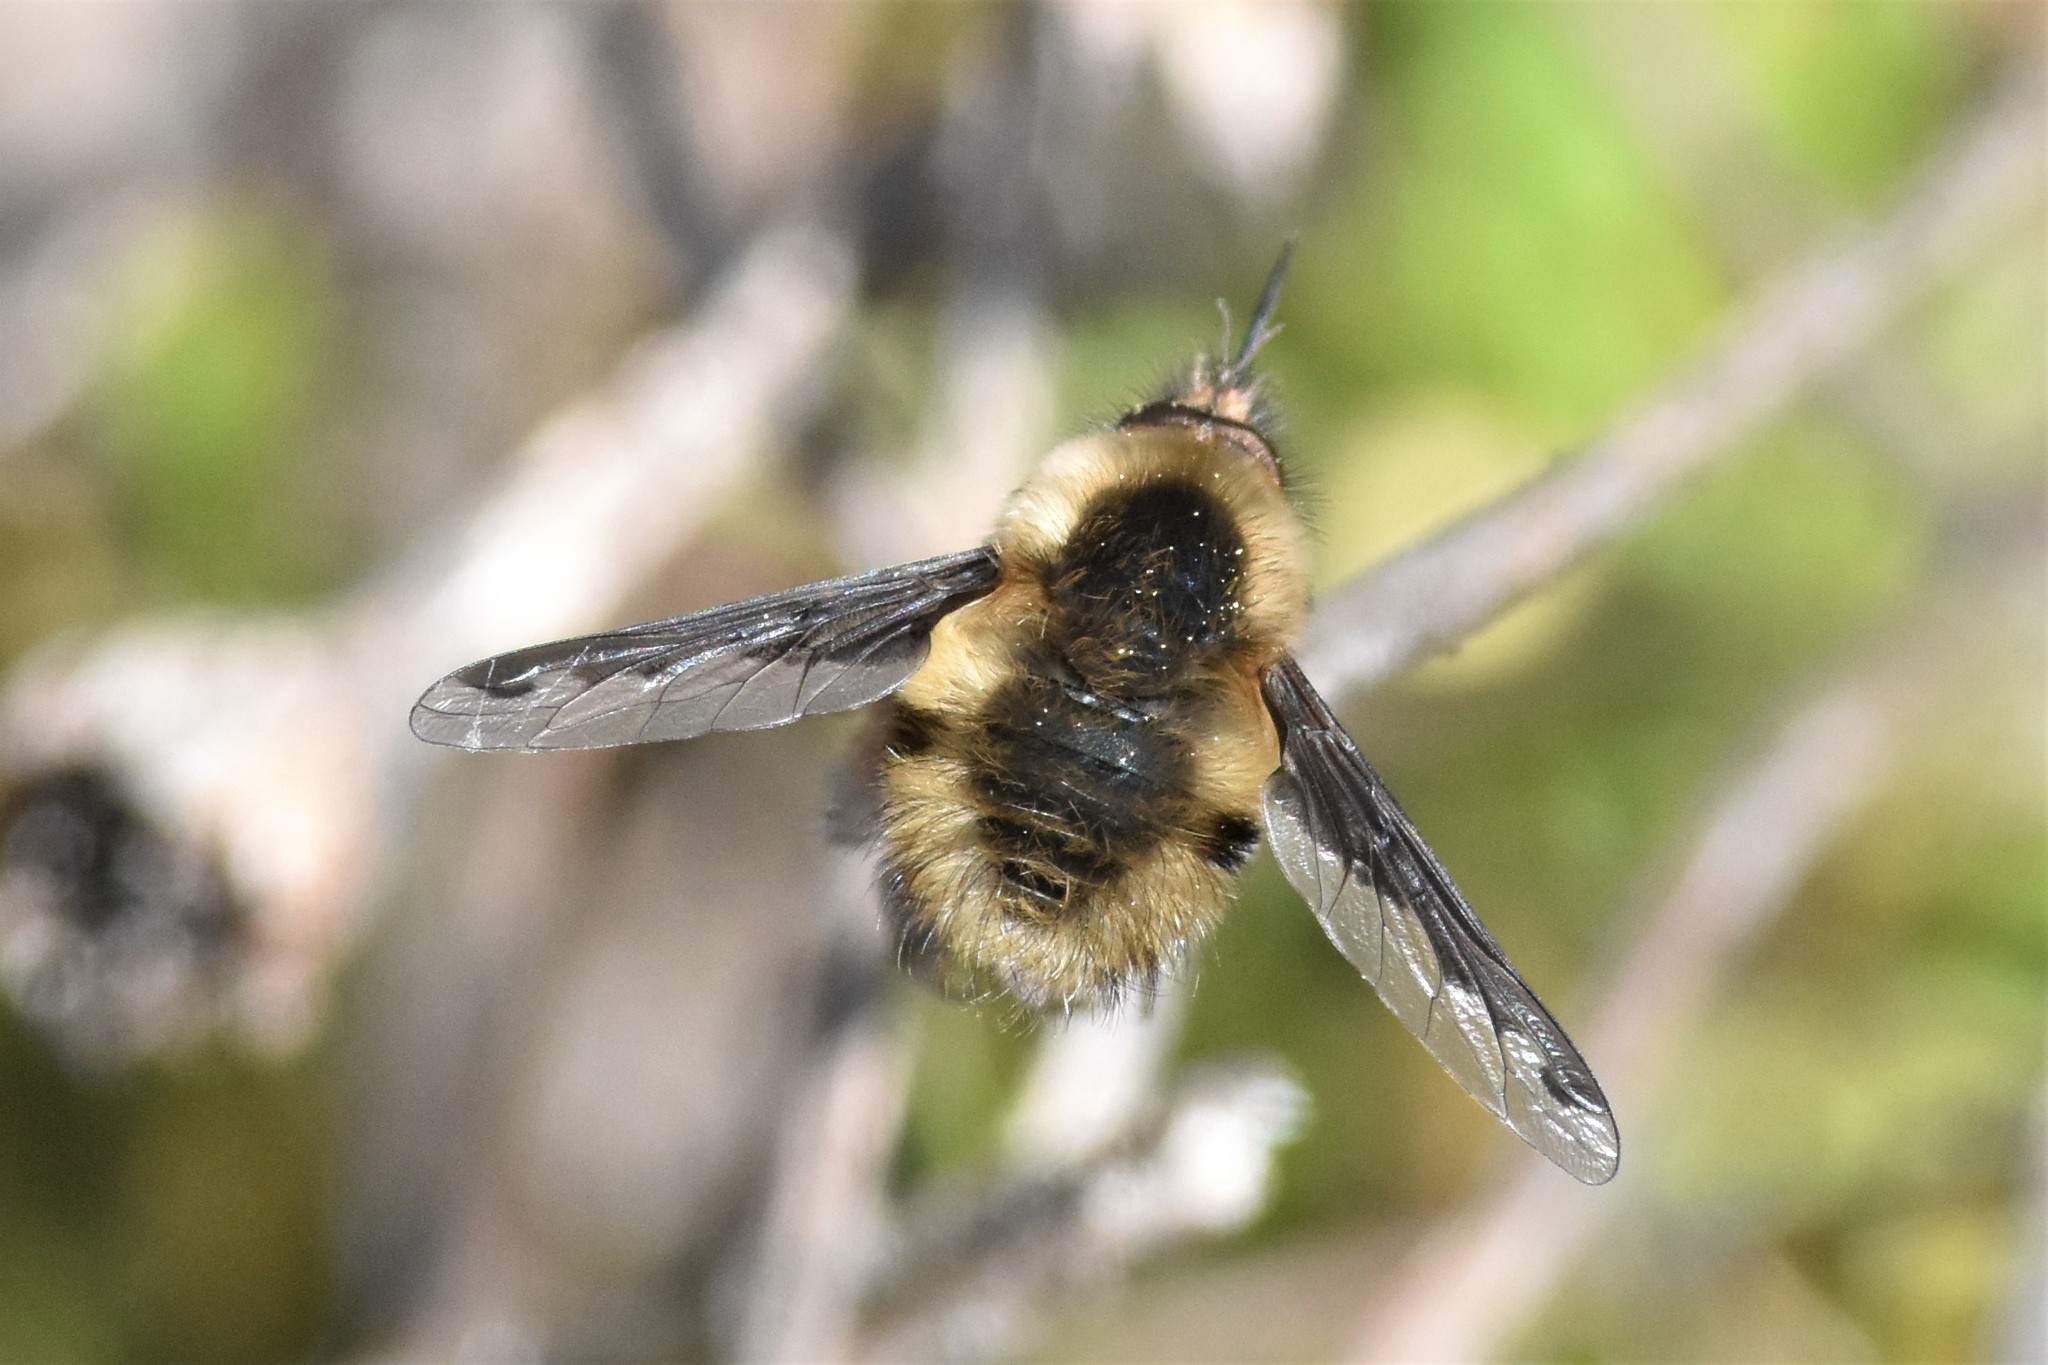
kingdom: Animalia
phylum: Arthropoda
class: Insecta
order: Diptera
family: Bombyliidae
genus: Bombylius
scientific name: Bombylius major
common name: Bee fly
